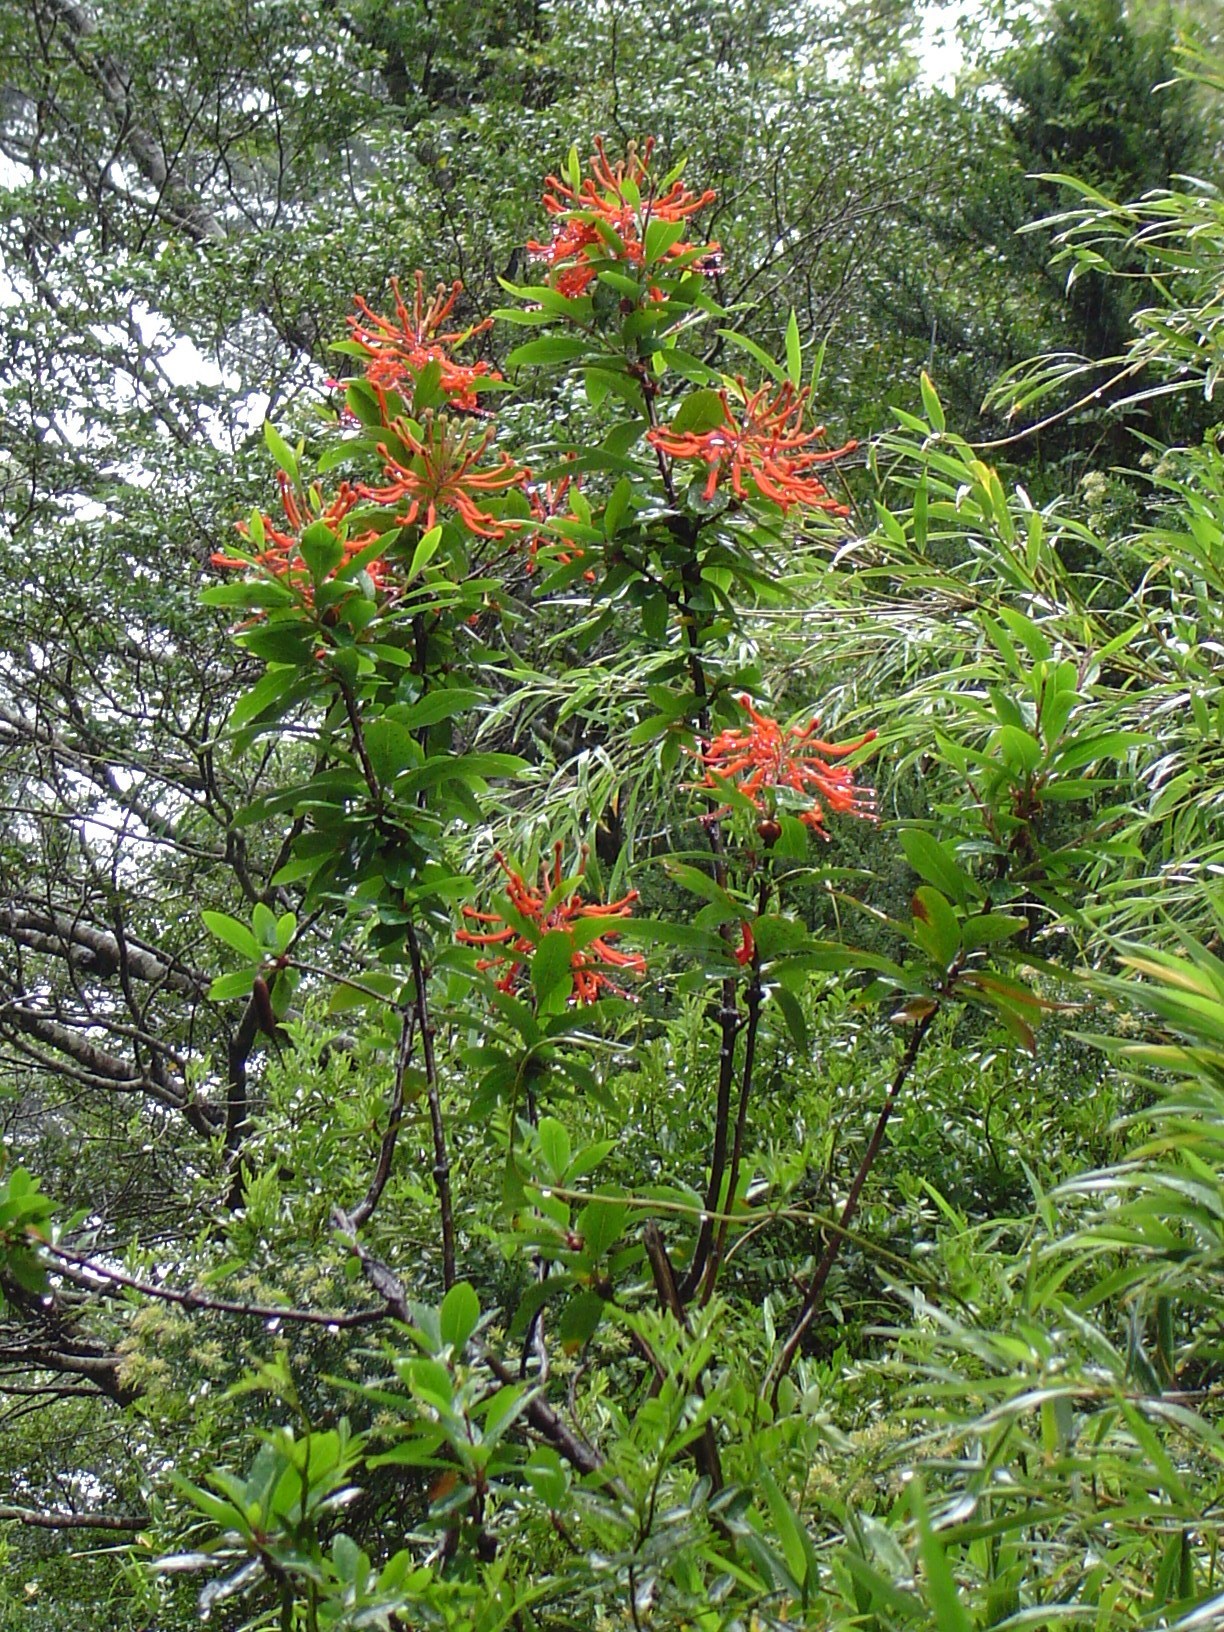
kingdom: Plantae
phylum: Tracheophyta
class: Magnoliopsida
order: Proteales
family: Proteaceae
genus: Embothrium
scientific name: Embothrium coccineum
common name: Chilean firebush
